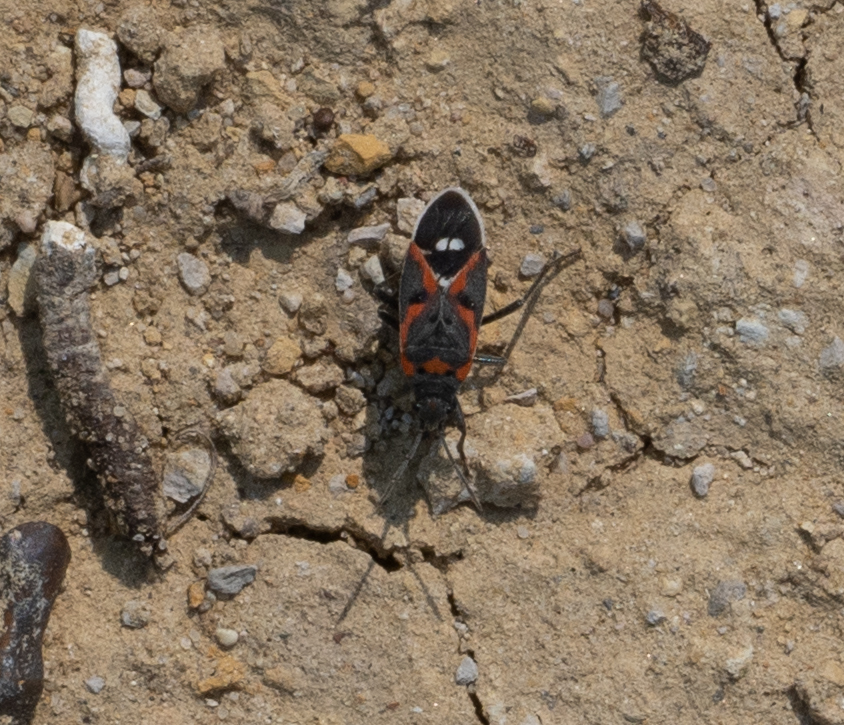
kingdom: Animalia
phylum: Arthropoda
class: Insecta
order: Hemiptera
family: Lygaeidae
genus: Lygaeus
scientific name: Lygaeus kalmii
